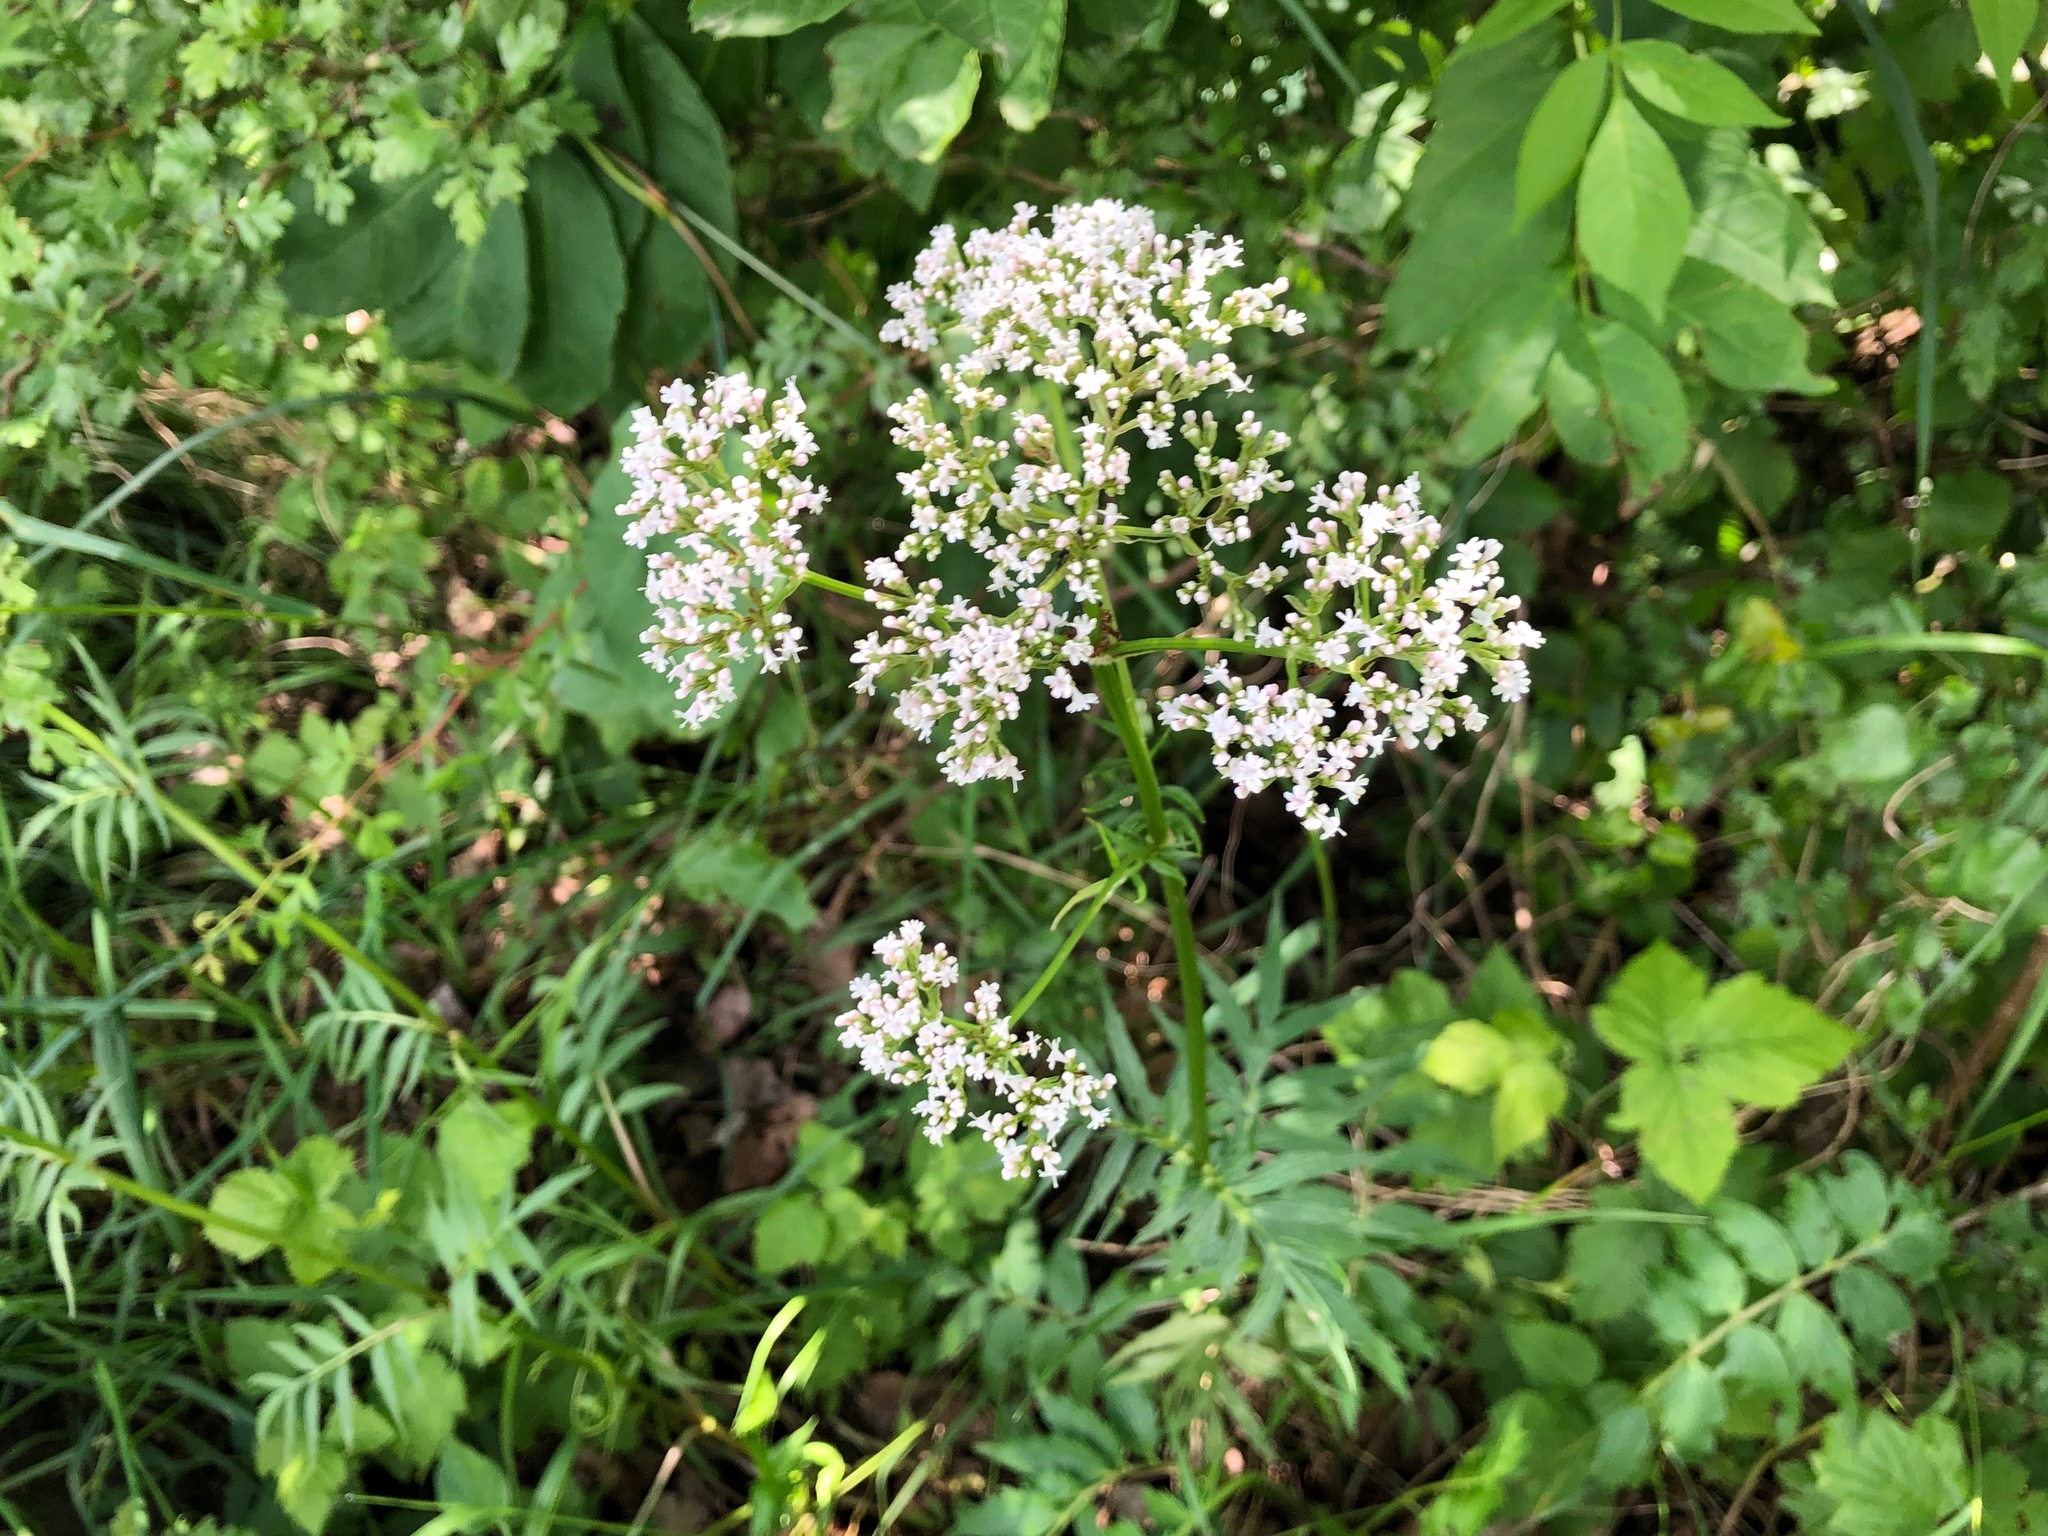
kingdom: Plantae
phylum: Tracheophyta
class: Magnoliopsida
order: Dipsacales
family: Caprifoliaceae
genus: Valeriana
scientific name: Valeriana officinalis
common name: Common valerian
